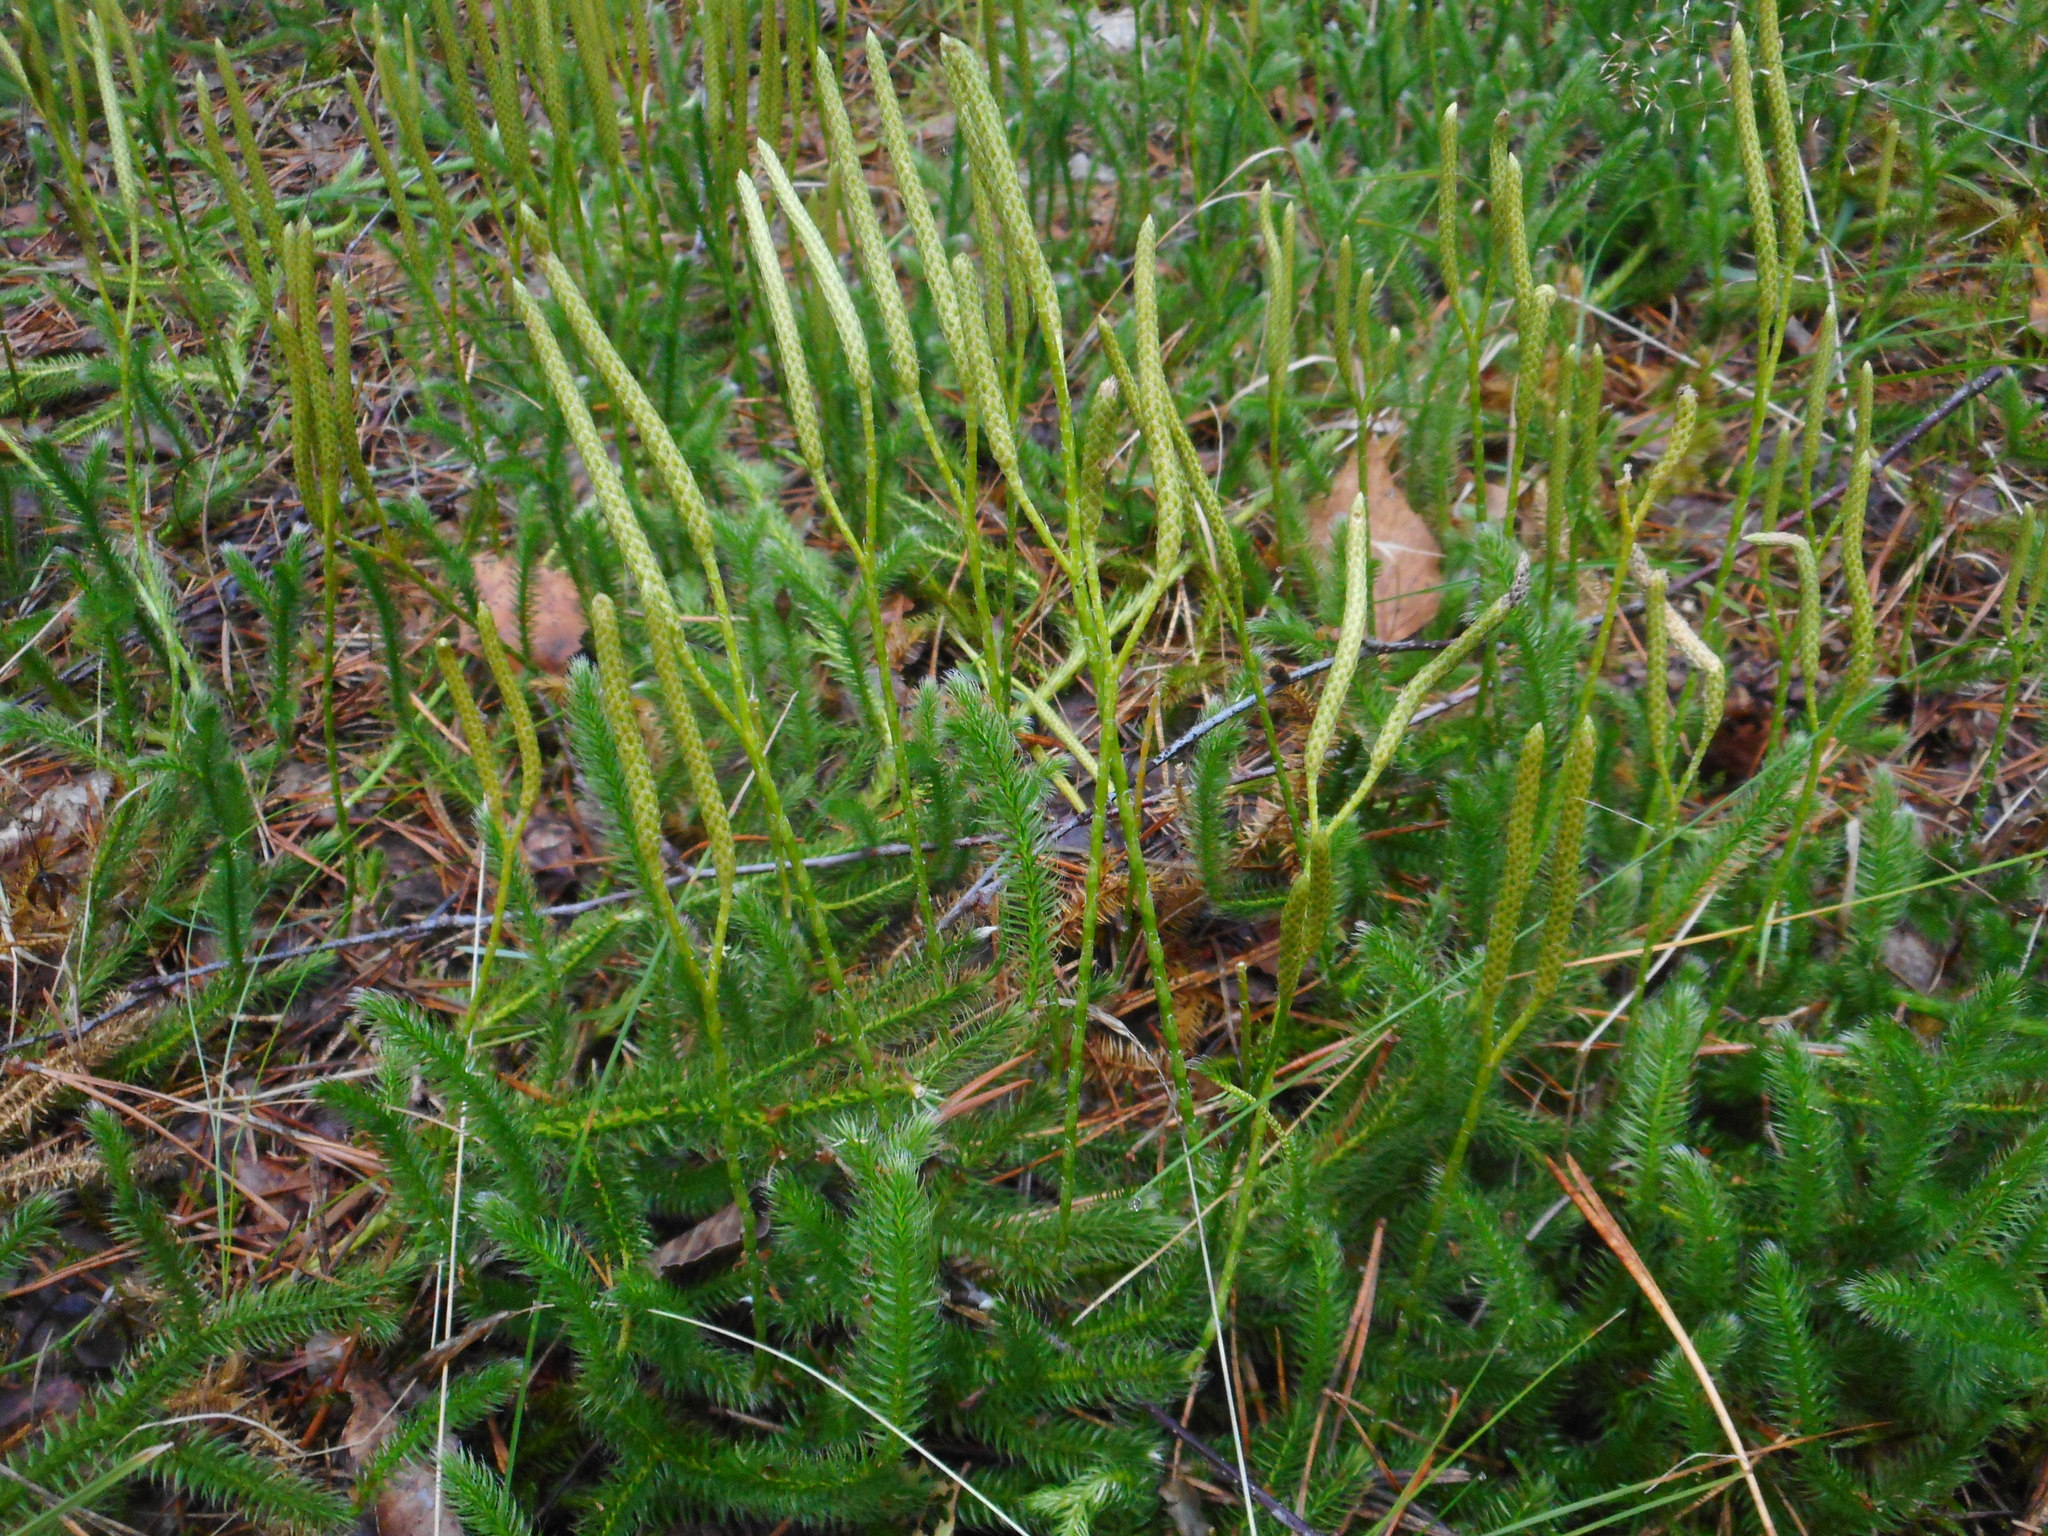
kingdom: Plantae
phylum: Tracheophyta
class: Lycopodiopsida
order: Lycopodiales
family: Lycopodiaceae
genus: Lycopodium
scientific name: Lycopodium clavatum
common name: Stag's-horn clubmoss
